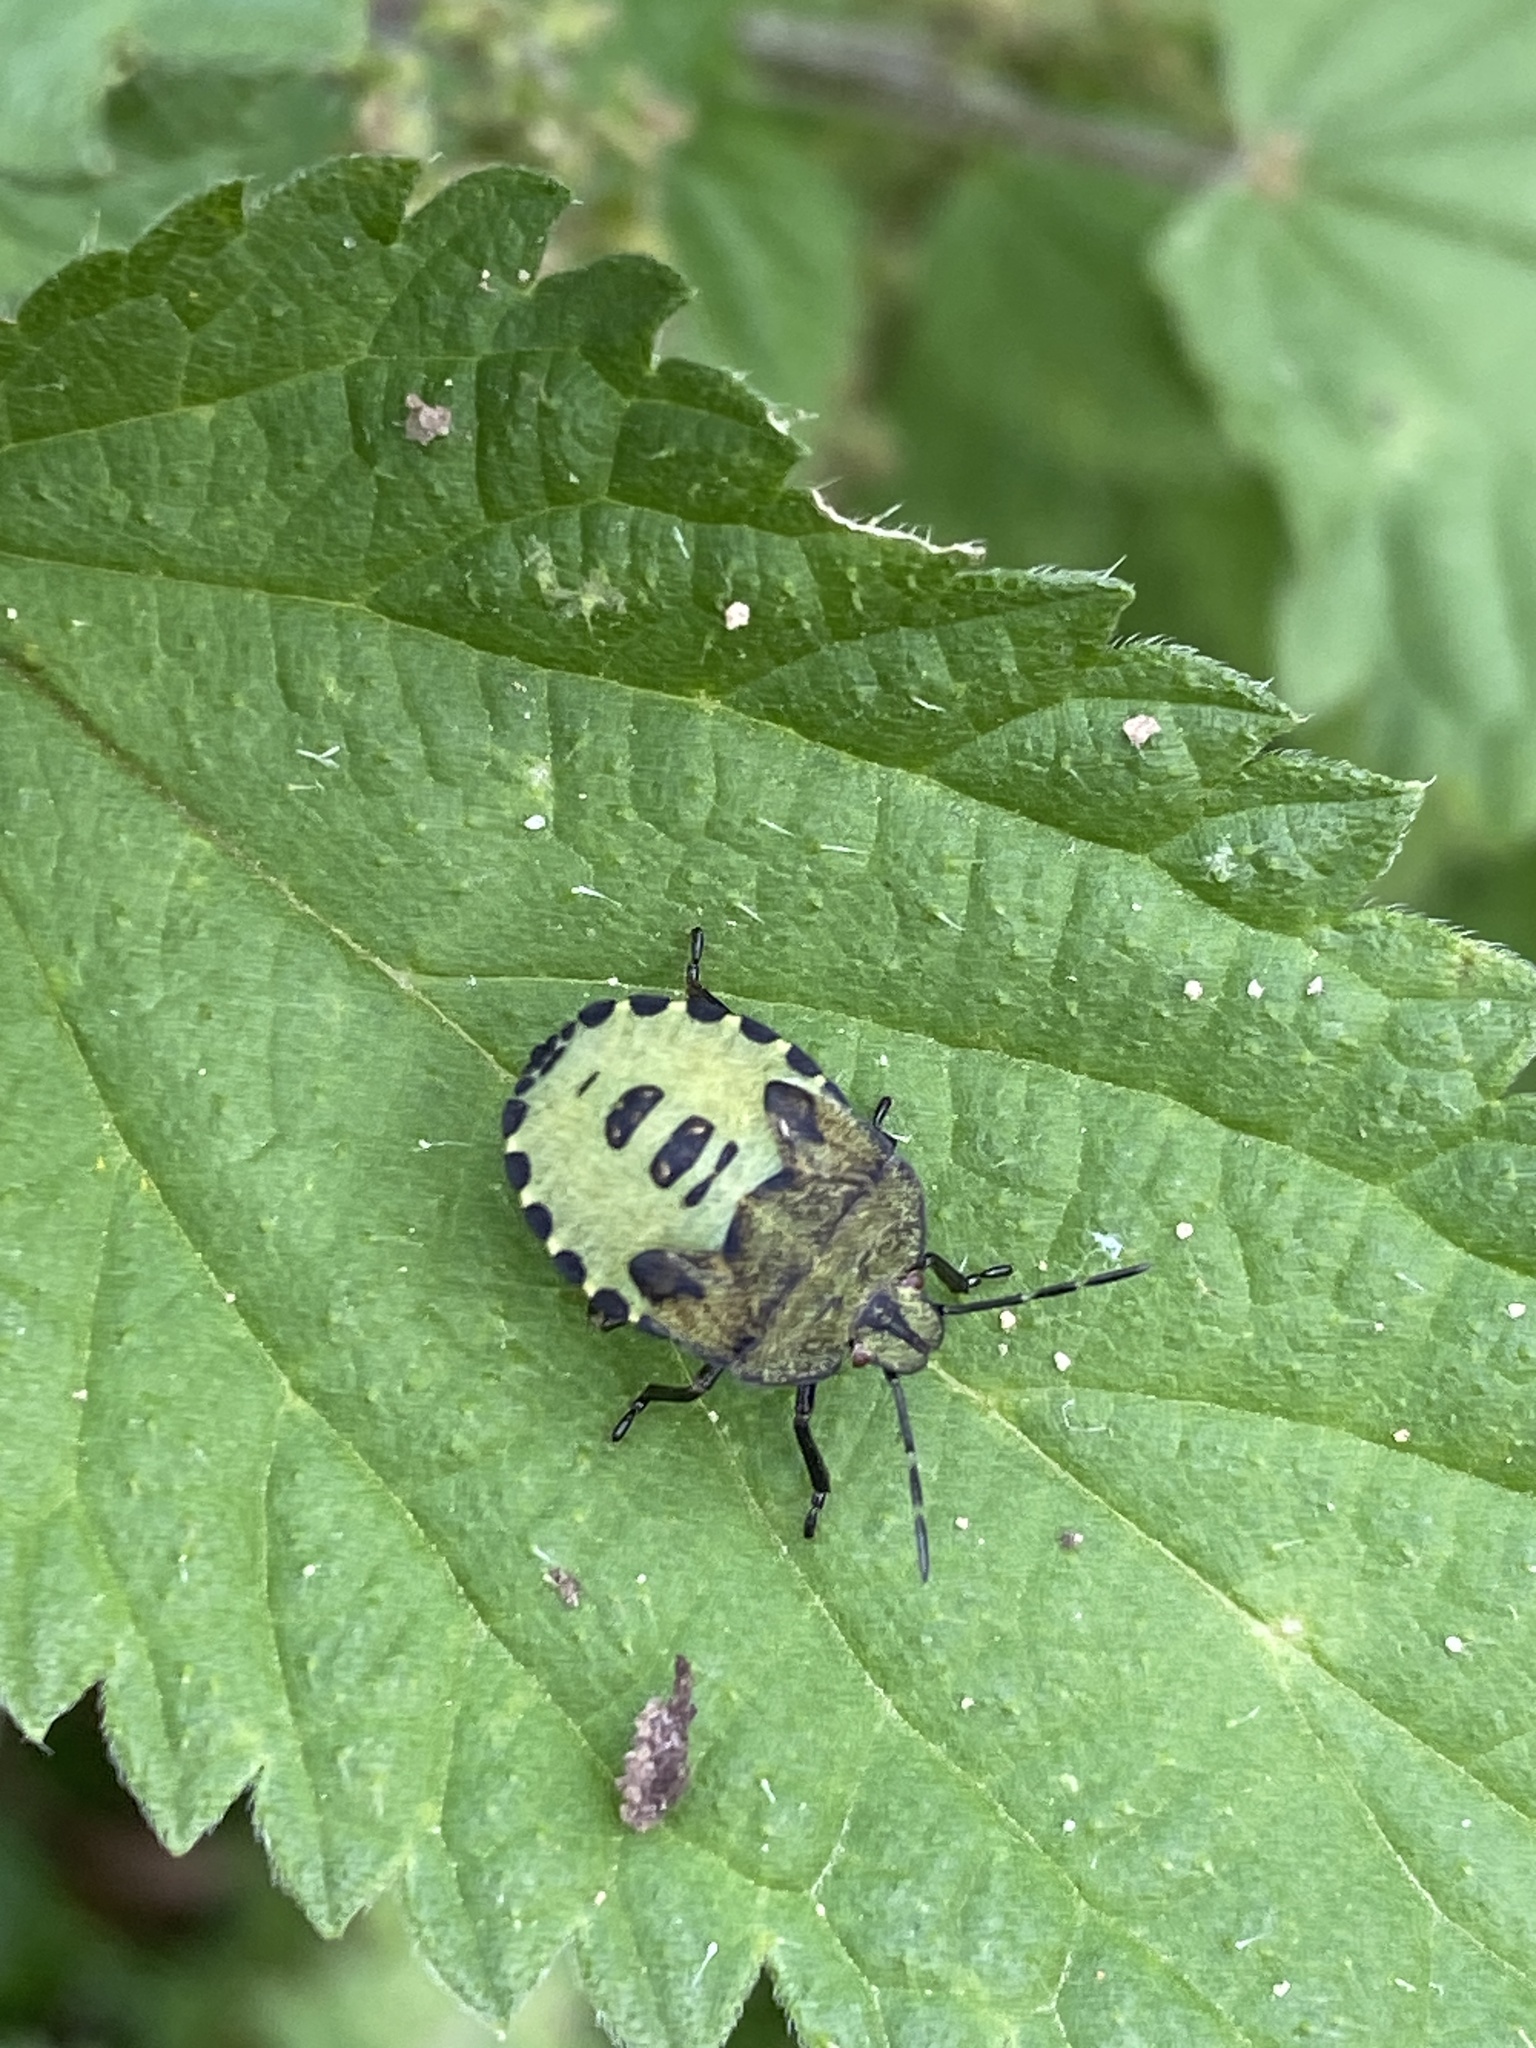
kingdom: Animalia
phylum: Arthropoda
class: Insecta
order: Hemiptera
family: Pentatomidae
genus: Palomena
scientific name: Palomena prasina
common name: Green shieldbug
